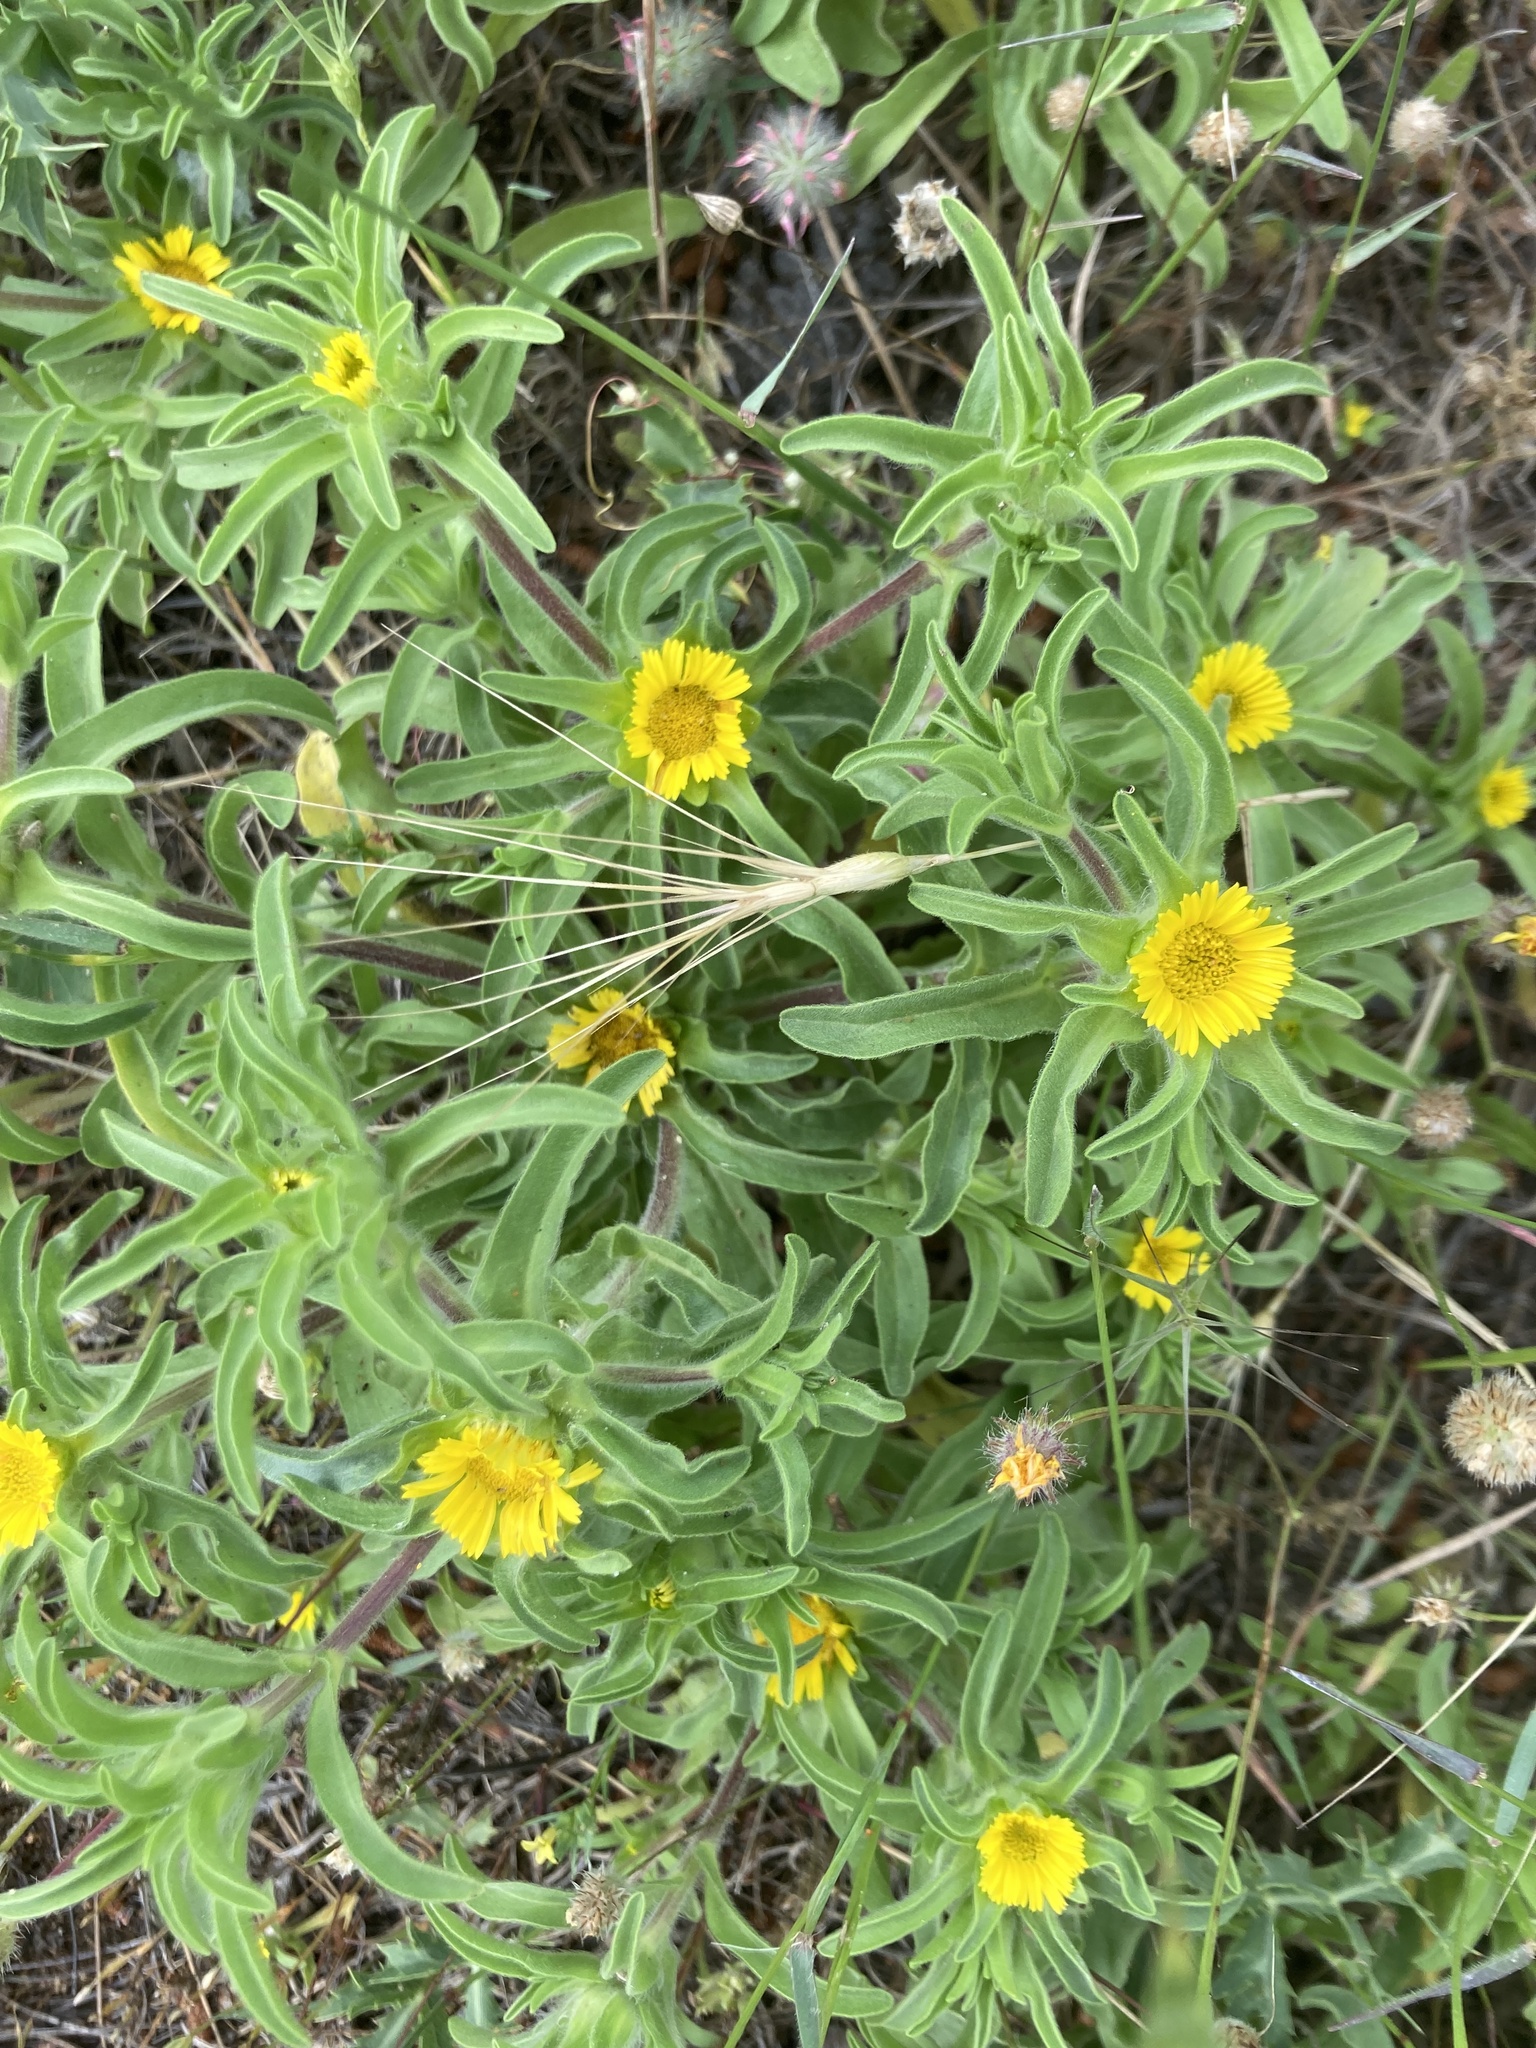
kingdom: Plantae
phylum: Tracheophyta
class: Magnoliopsida
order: Asterales
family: Asteraceae
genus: Asteriscus
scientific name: Asteriscus aquaticus
